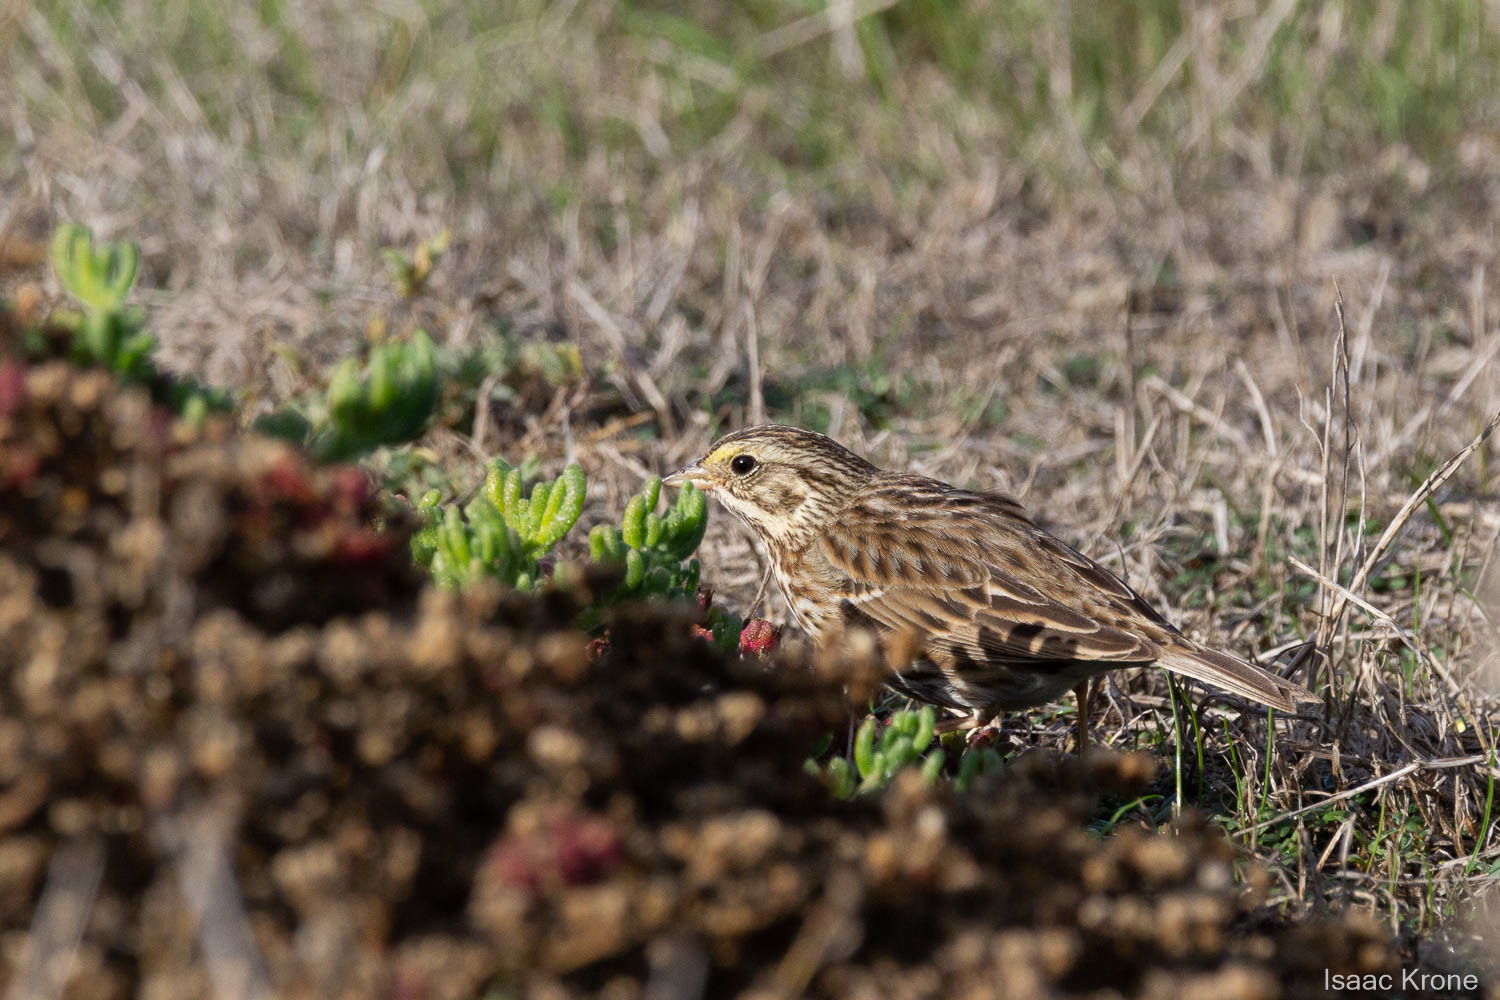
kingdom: Animalia
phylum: Chordata
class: Aves
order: Passeriformes
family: Passerellidae
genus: Passerculus
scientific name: Passerculus sandwichensis
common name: Savannah sparrow
